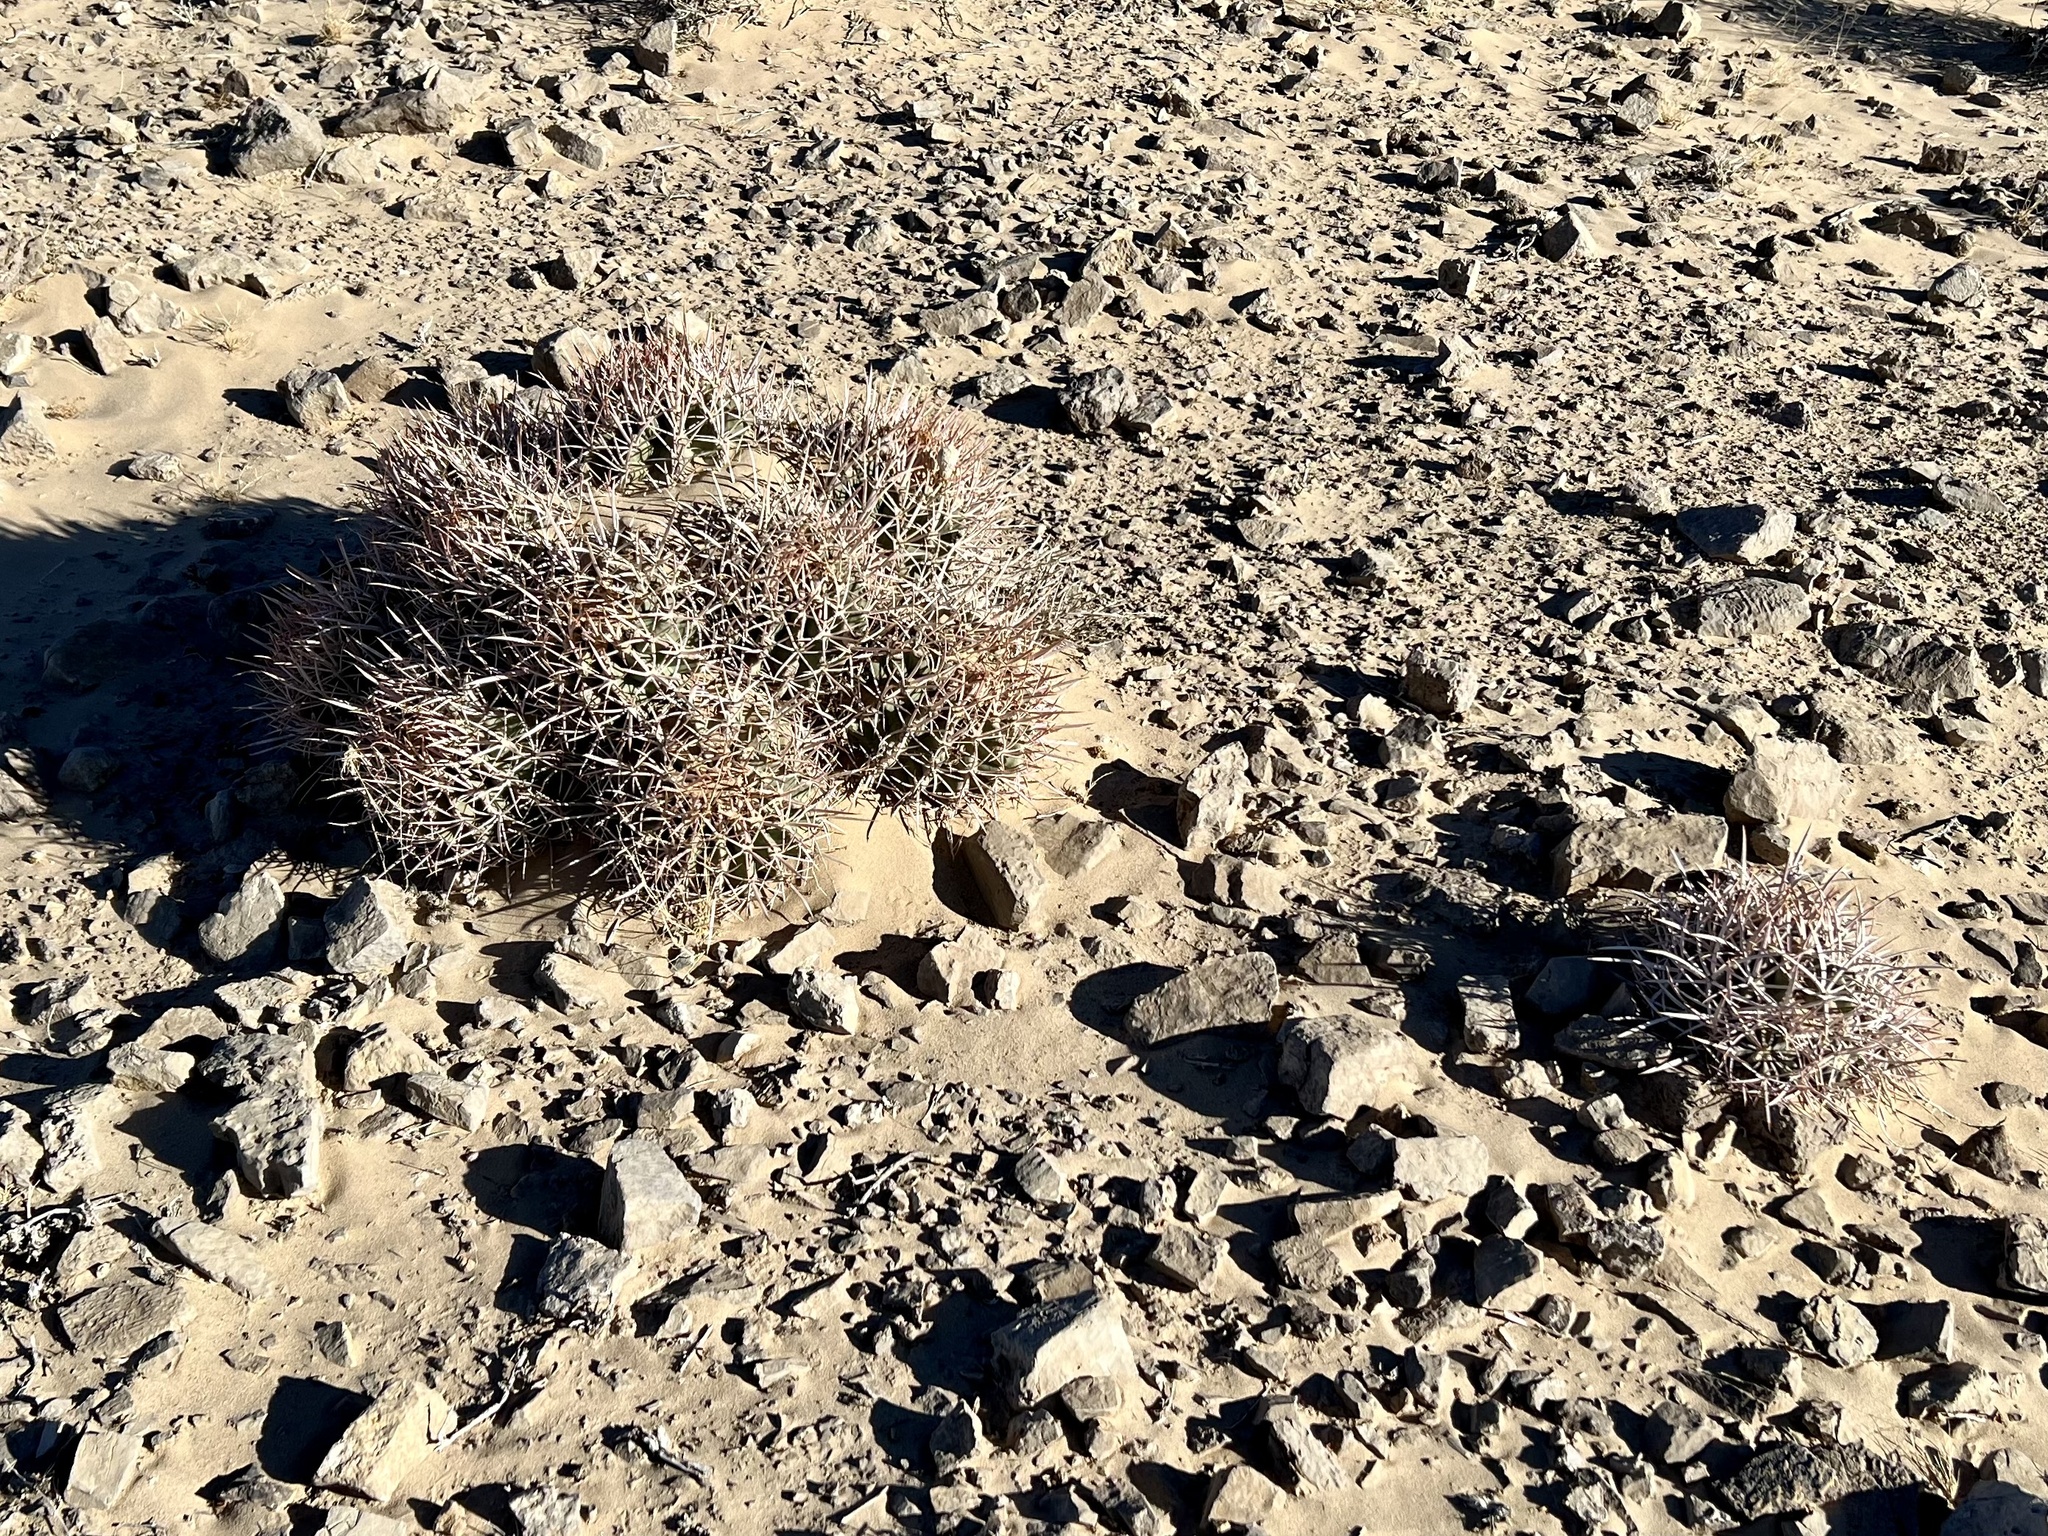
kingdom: Plantae
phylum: Tracheophyta
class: Magnoliopsida
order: Caryophyllales
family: Cactaceae
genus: Echinocactus
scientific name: Echinocactus polycephalus
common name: Cottontop cactus
